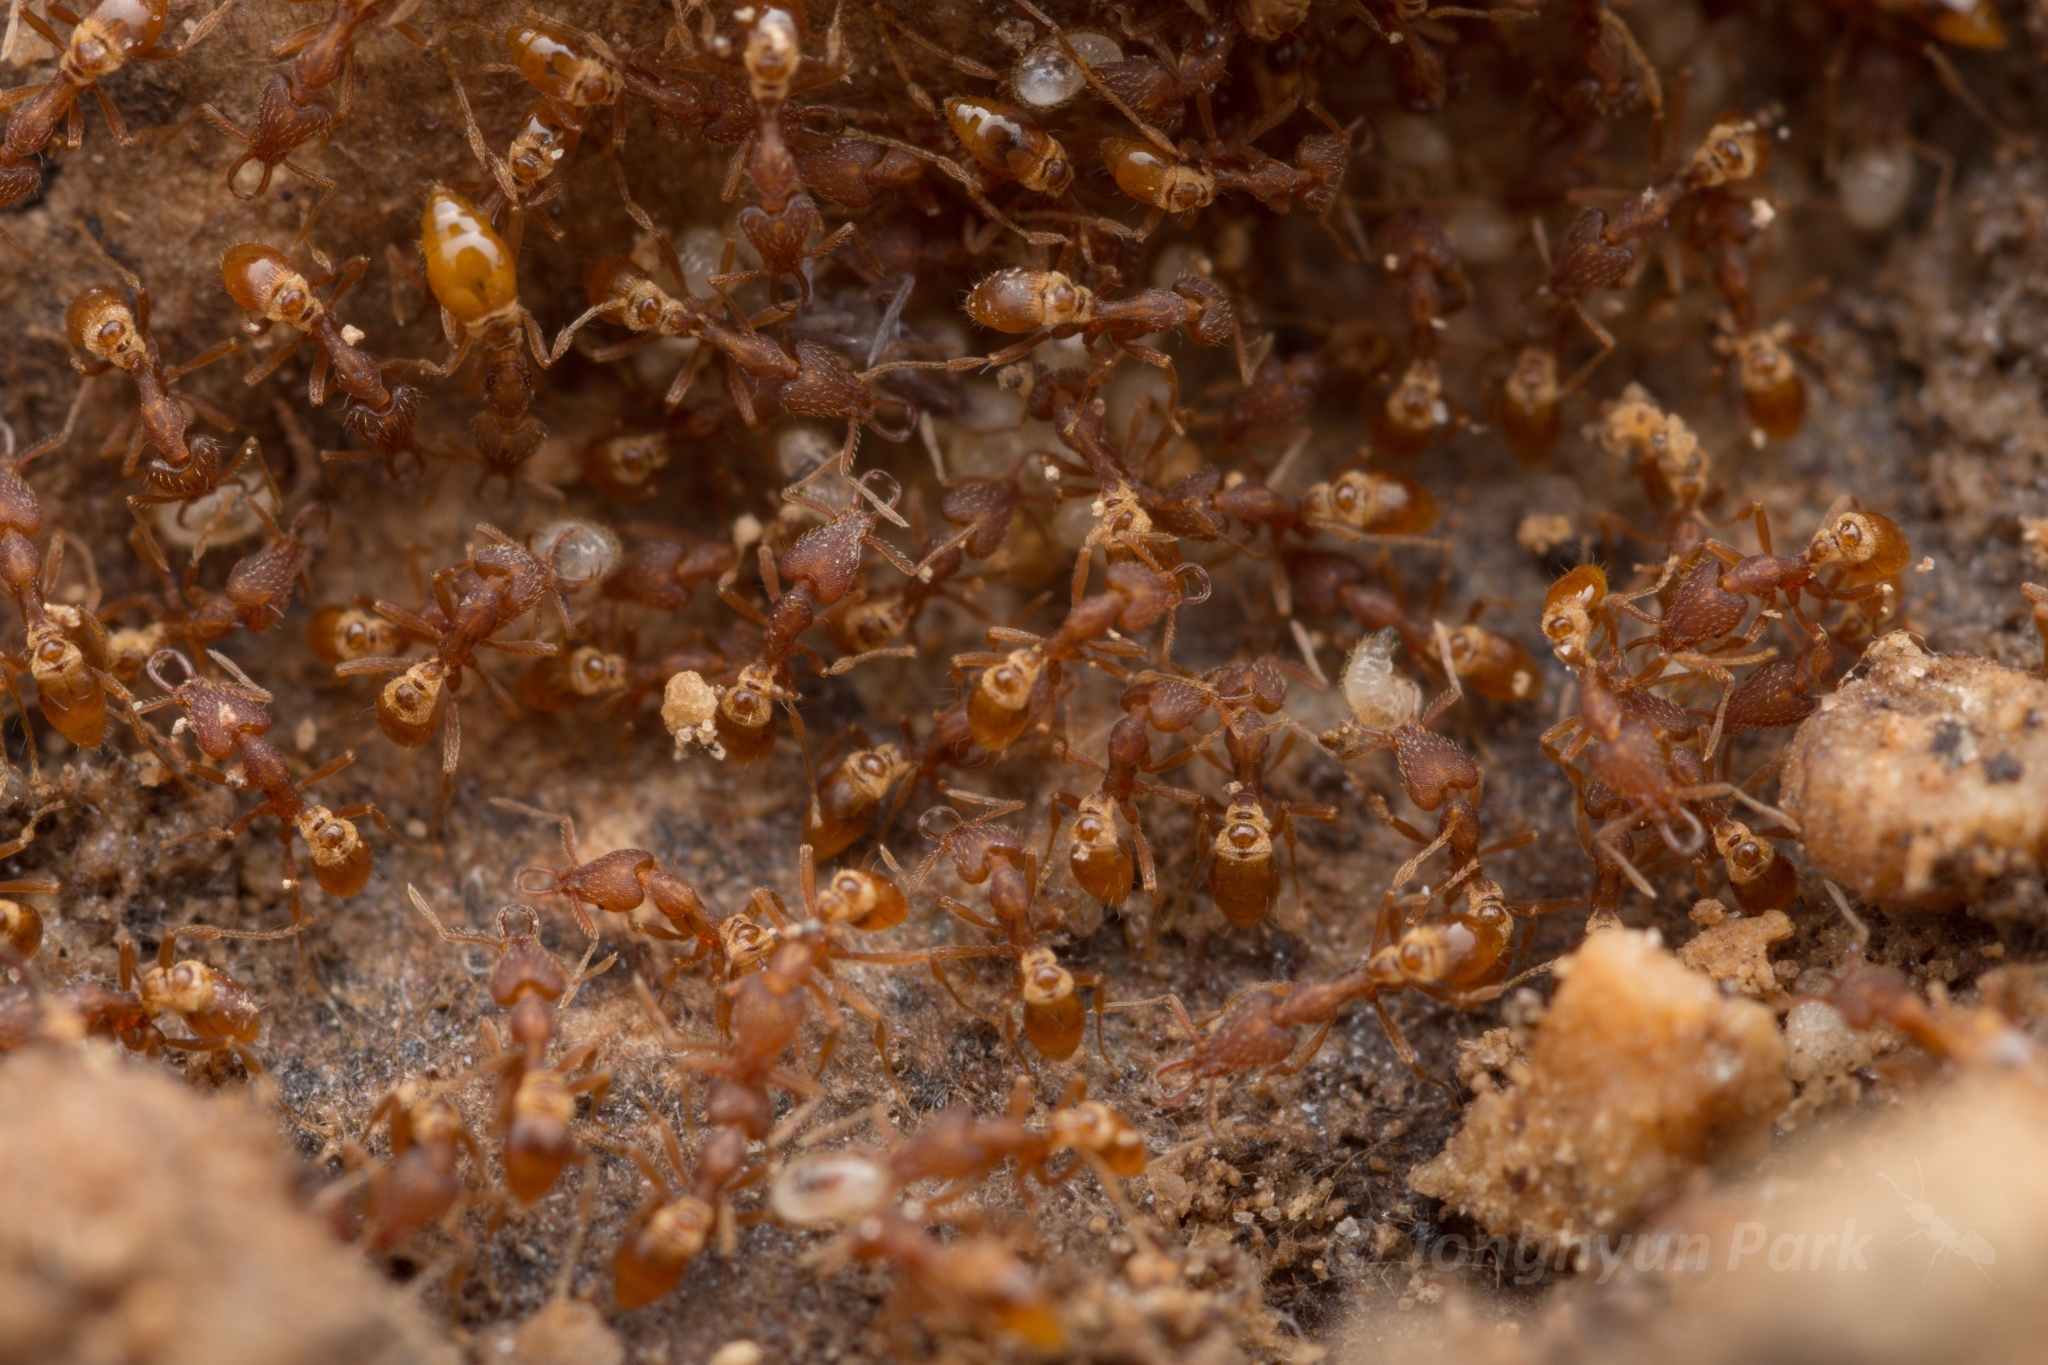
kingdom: Animalia
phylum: Arthropoda
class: Insecta
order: Hymenoptera
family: Formicidae
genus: Strumigenys
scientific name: Strumigenys lewisi
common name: Ant
